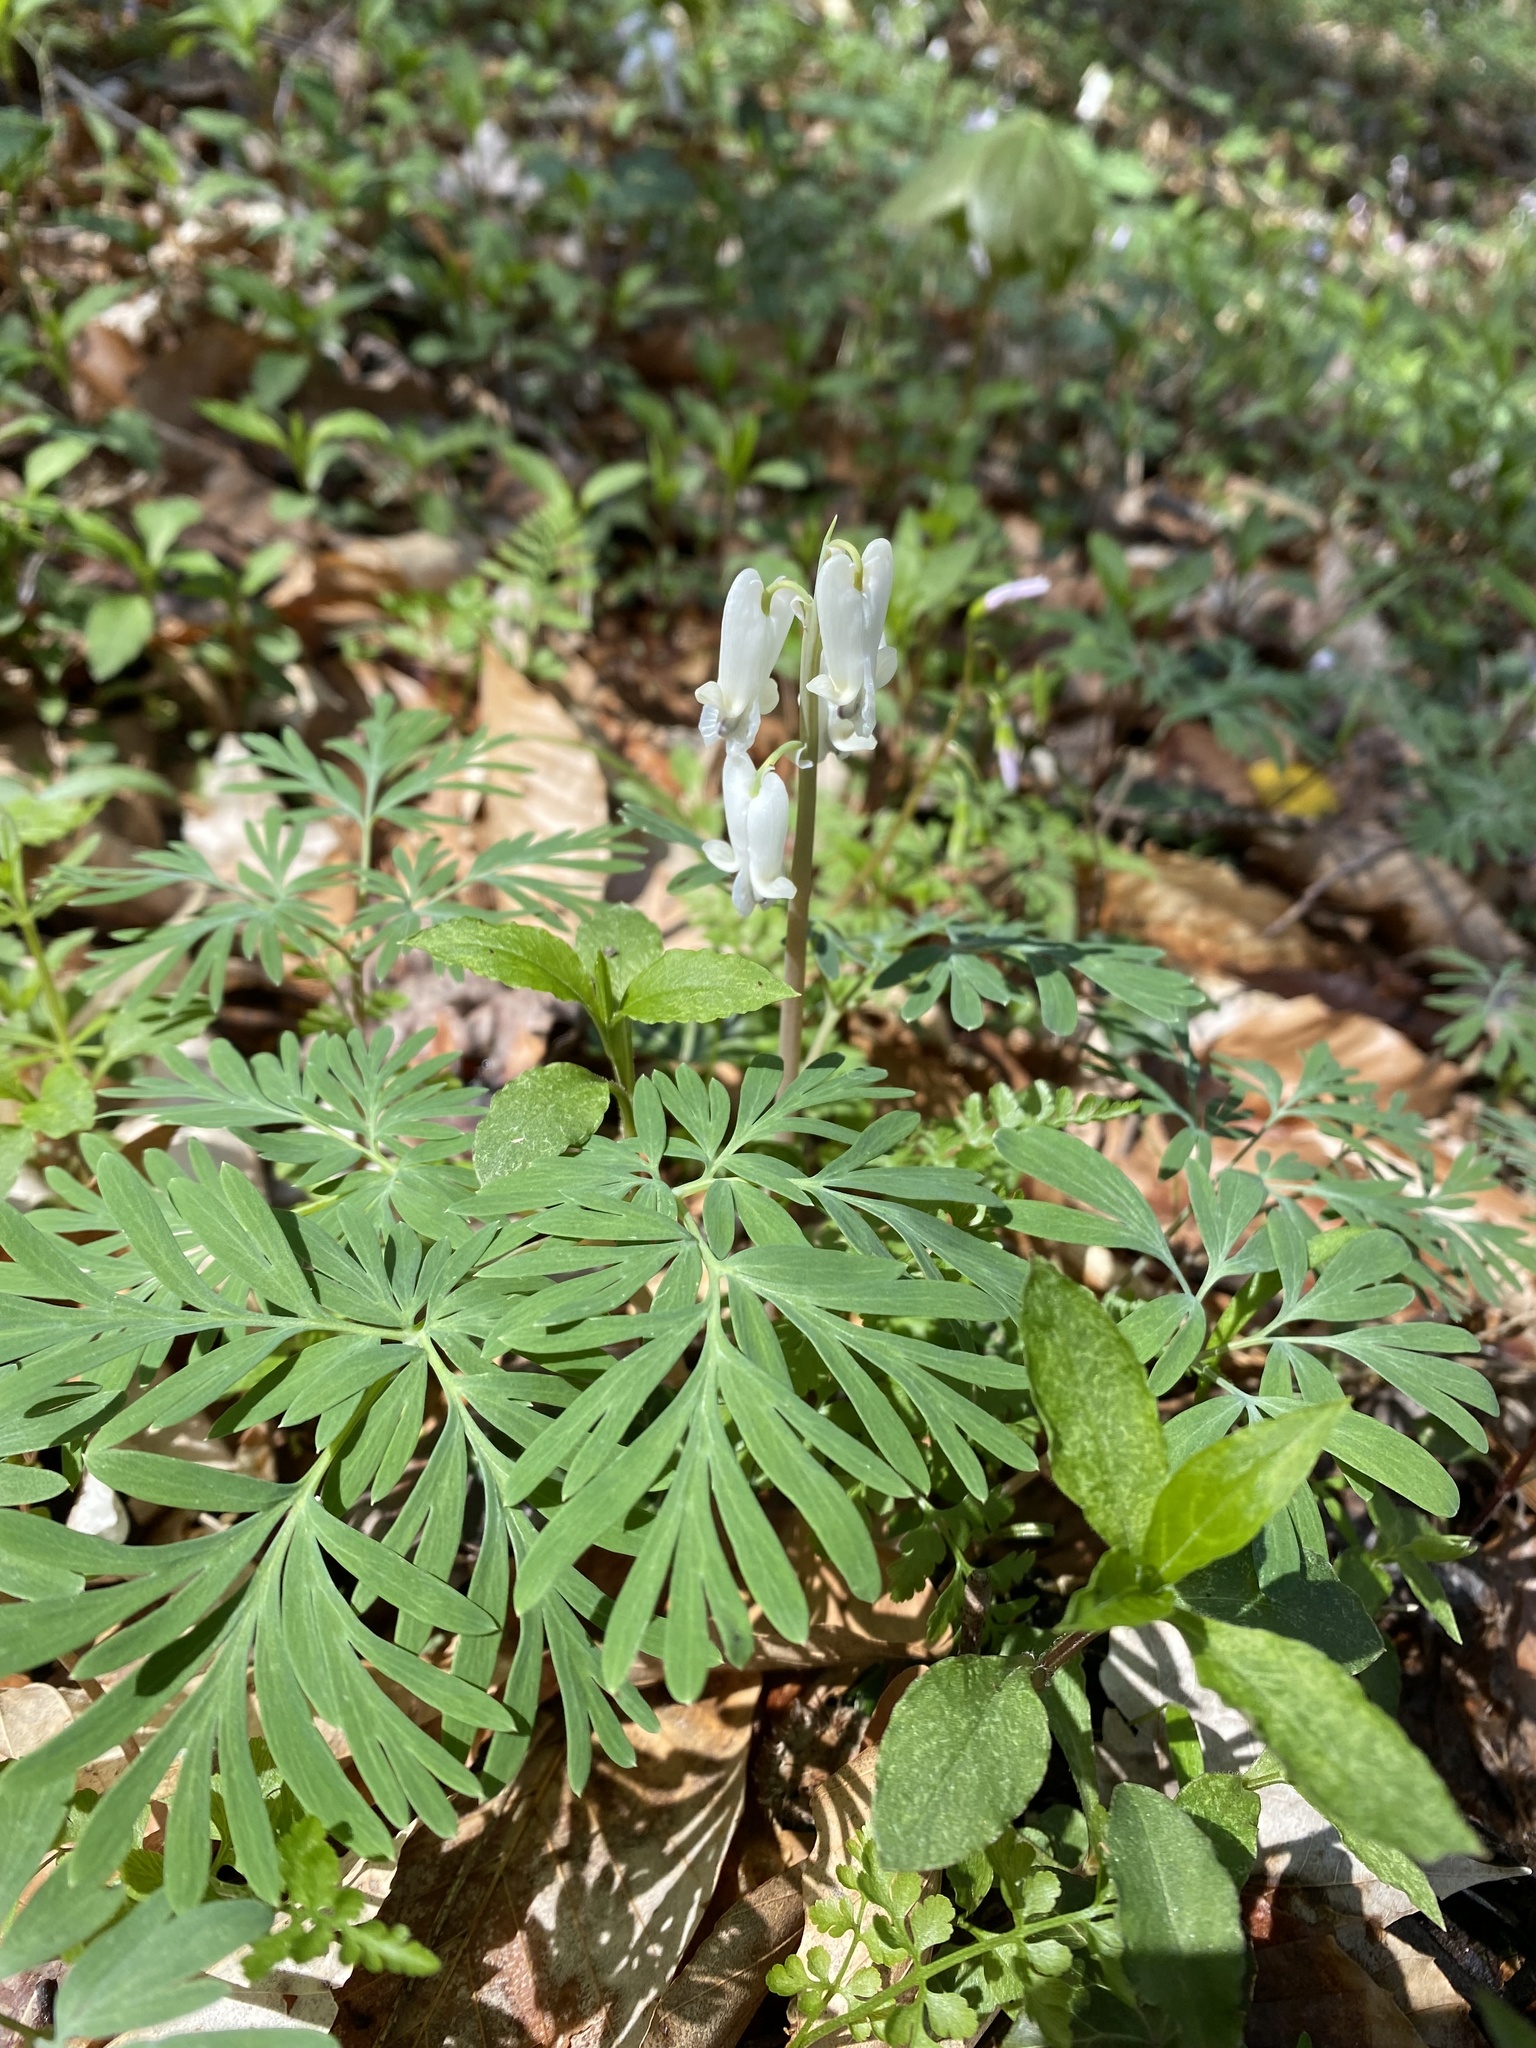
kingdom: Plantae
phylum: Tracheophyta
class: Magnoliopsida
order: Ranunculales
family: Papaveraceae
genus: Dicentra
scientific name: Dicentra canadensis
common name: Squirrel-corn
